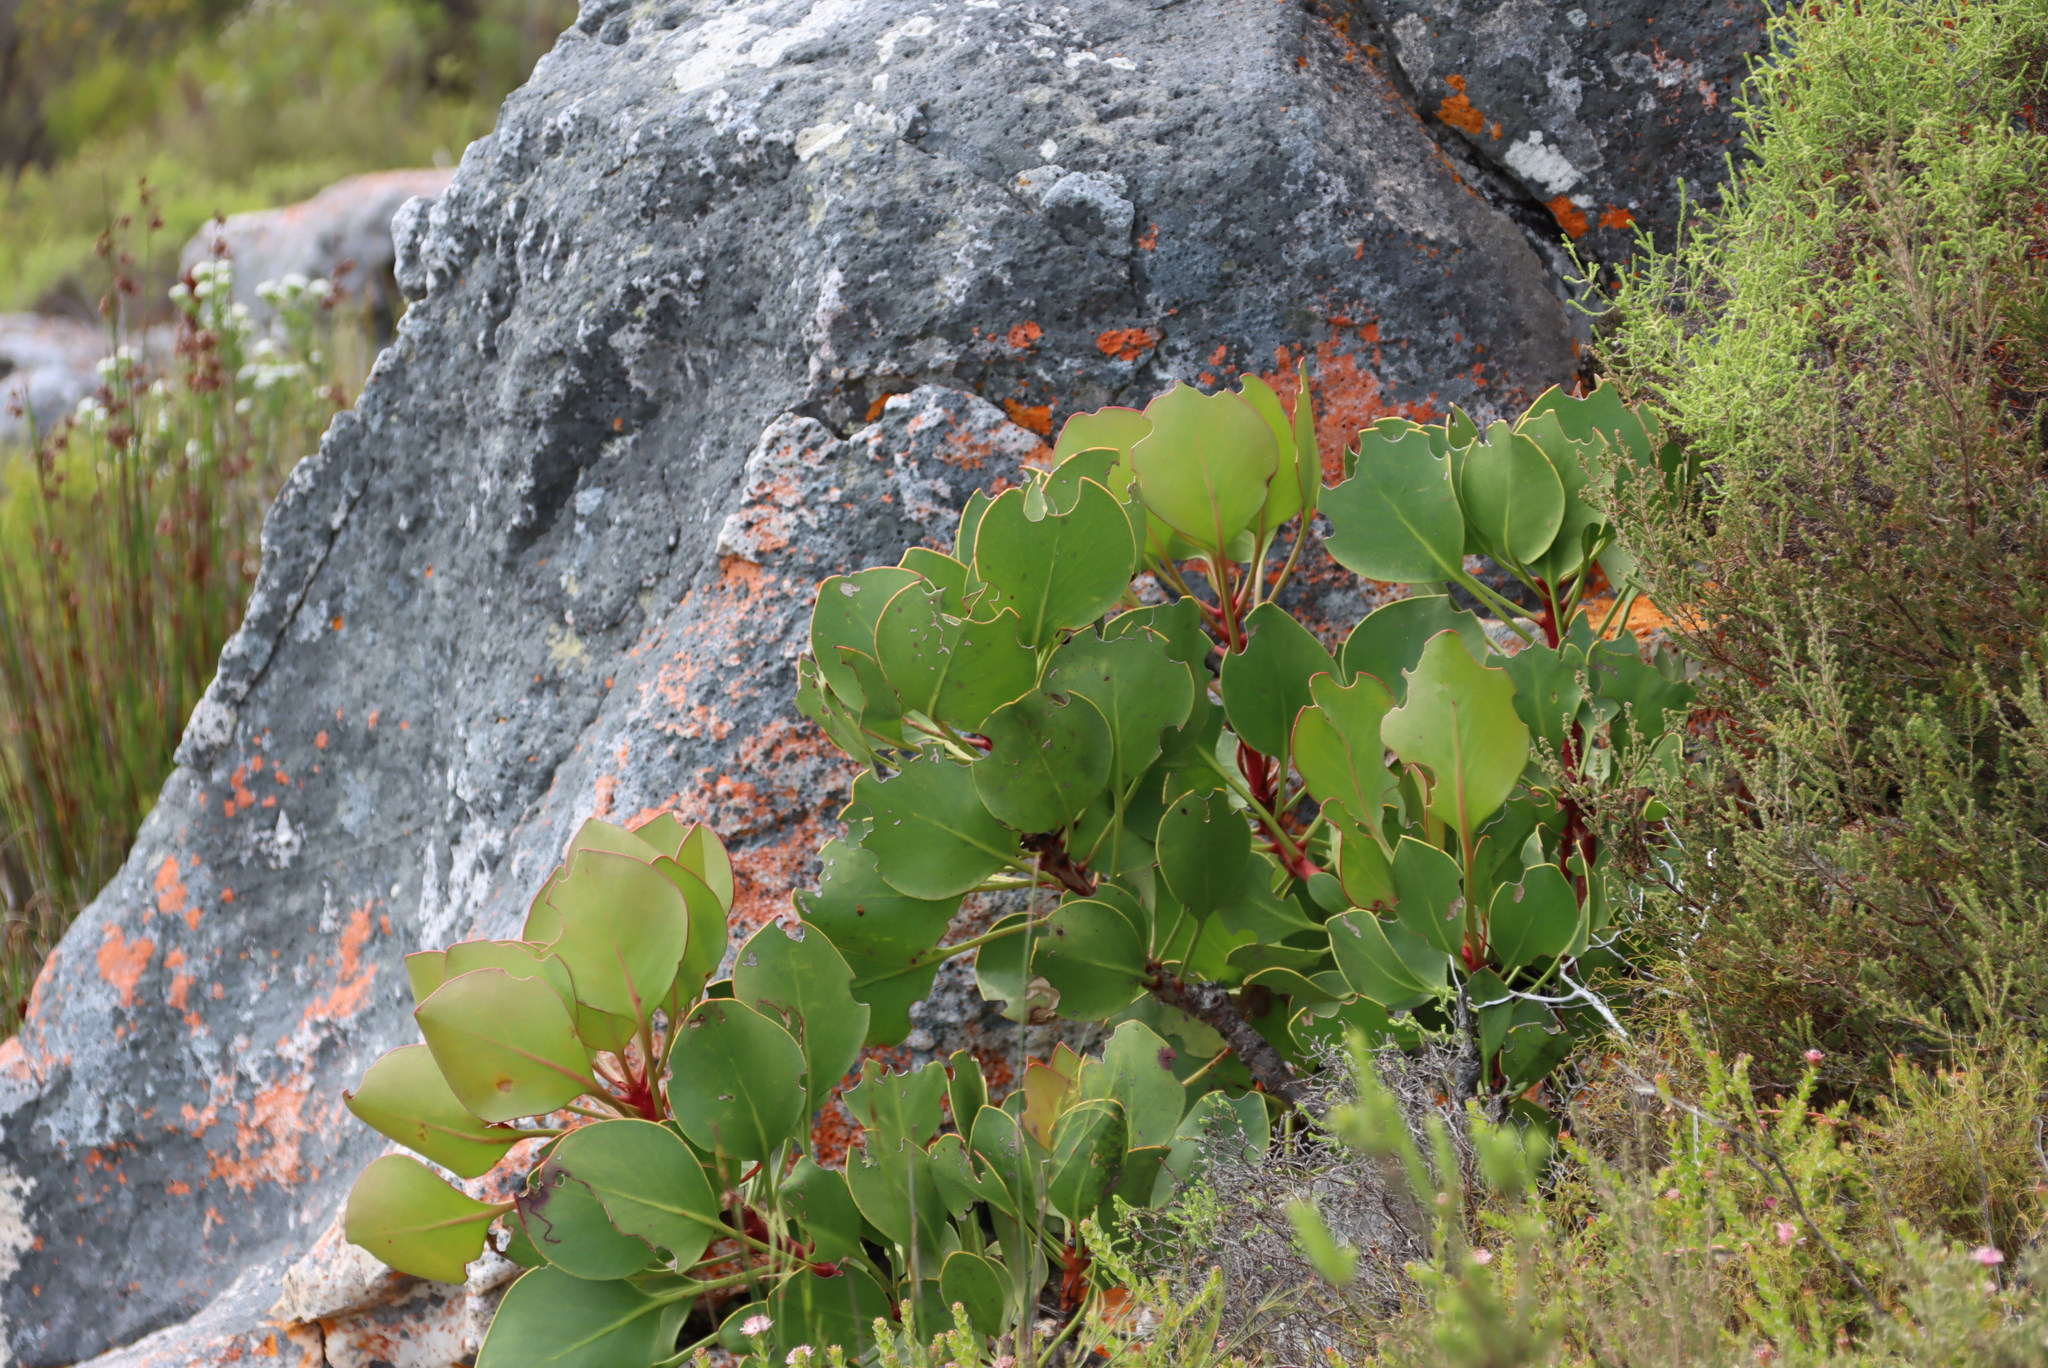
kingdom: Plantae
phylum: Tracheophyta
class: Magnoliopsida
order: Proteales
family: Proteaceae
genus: Protea
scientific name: Protea cynaroides
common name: King protea
